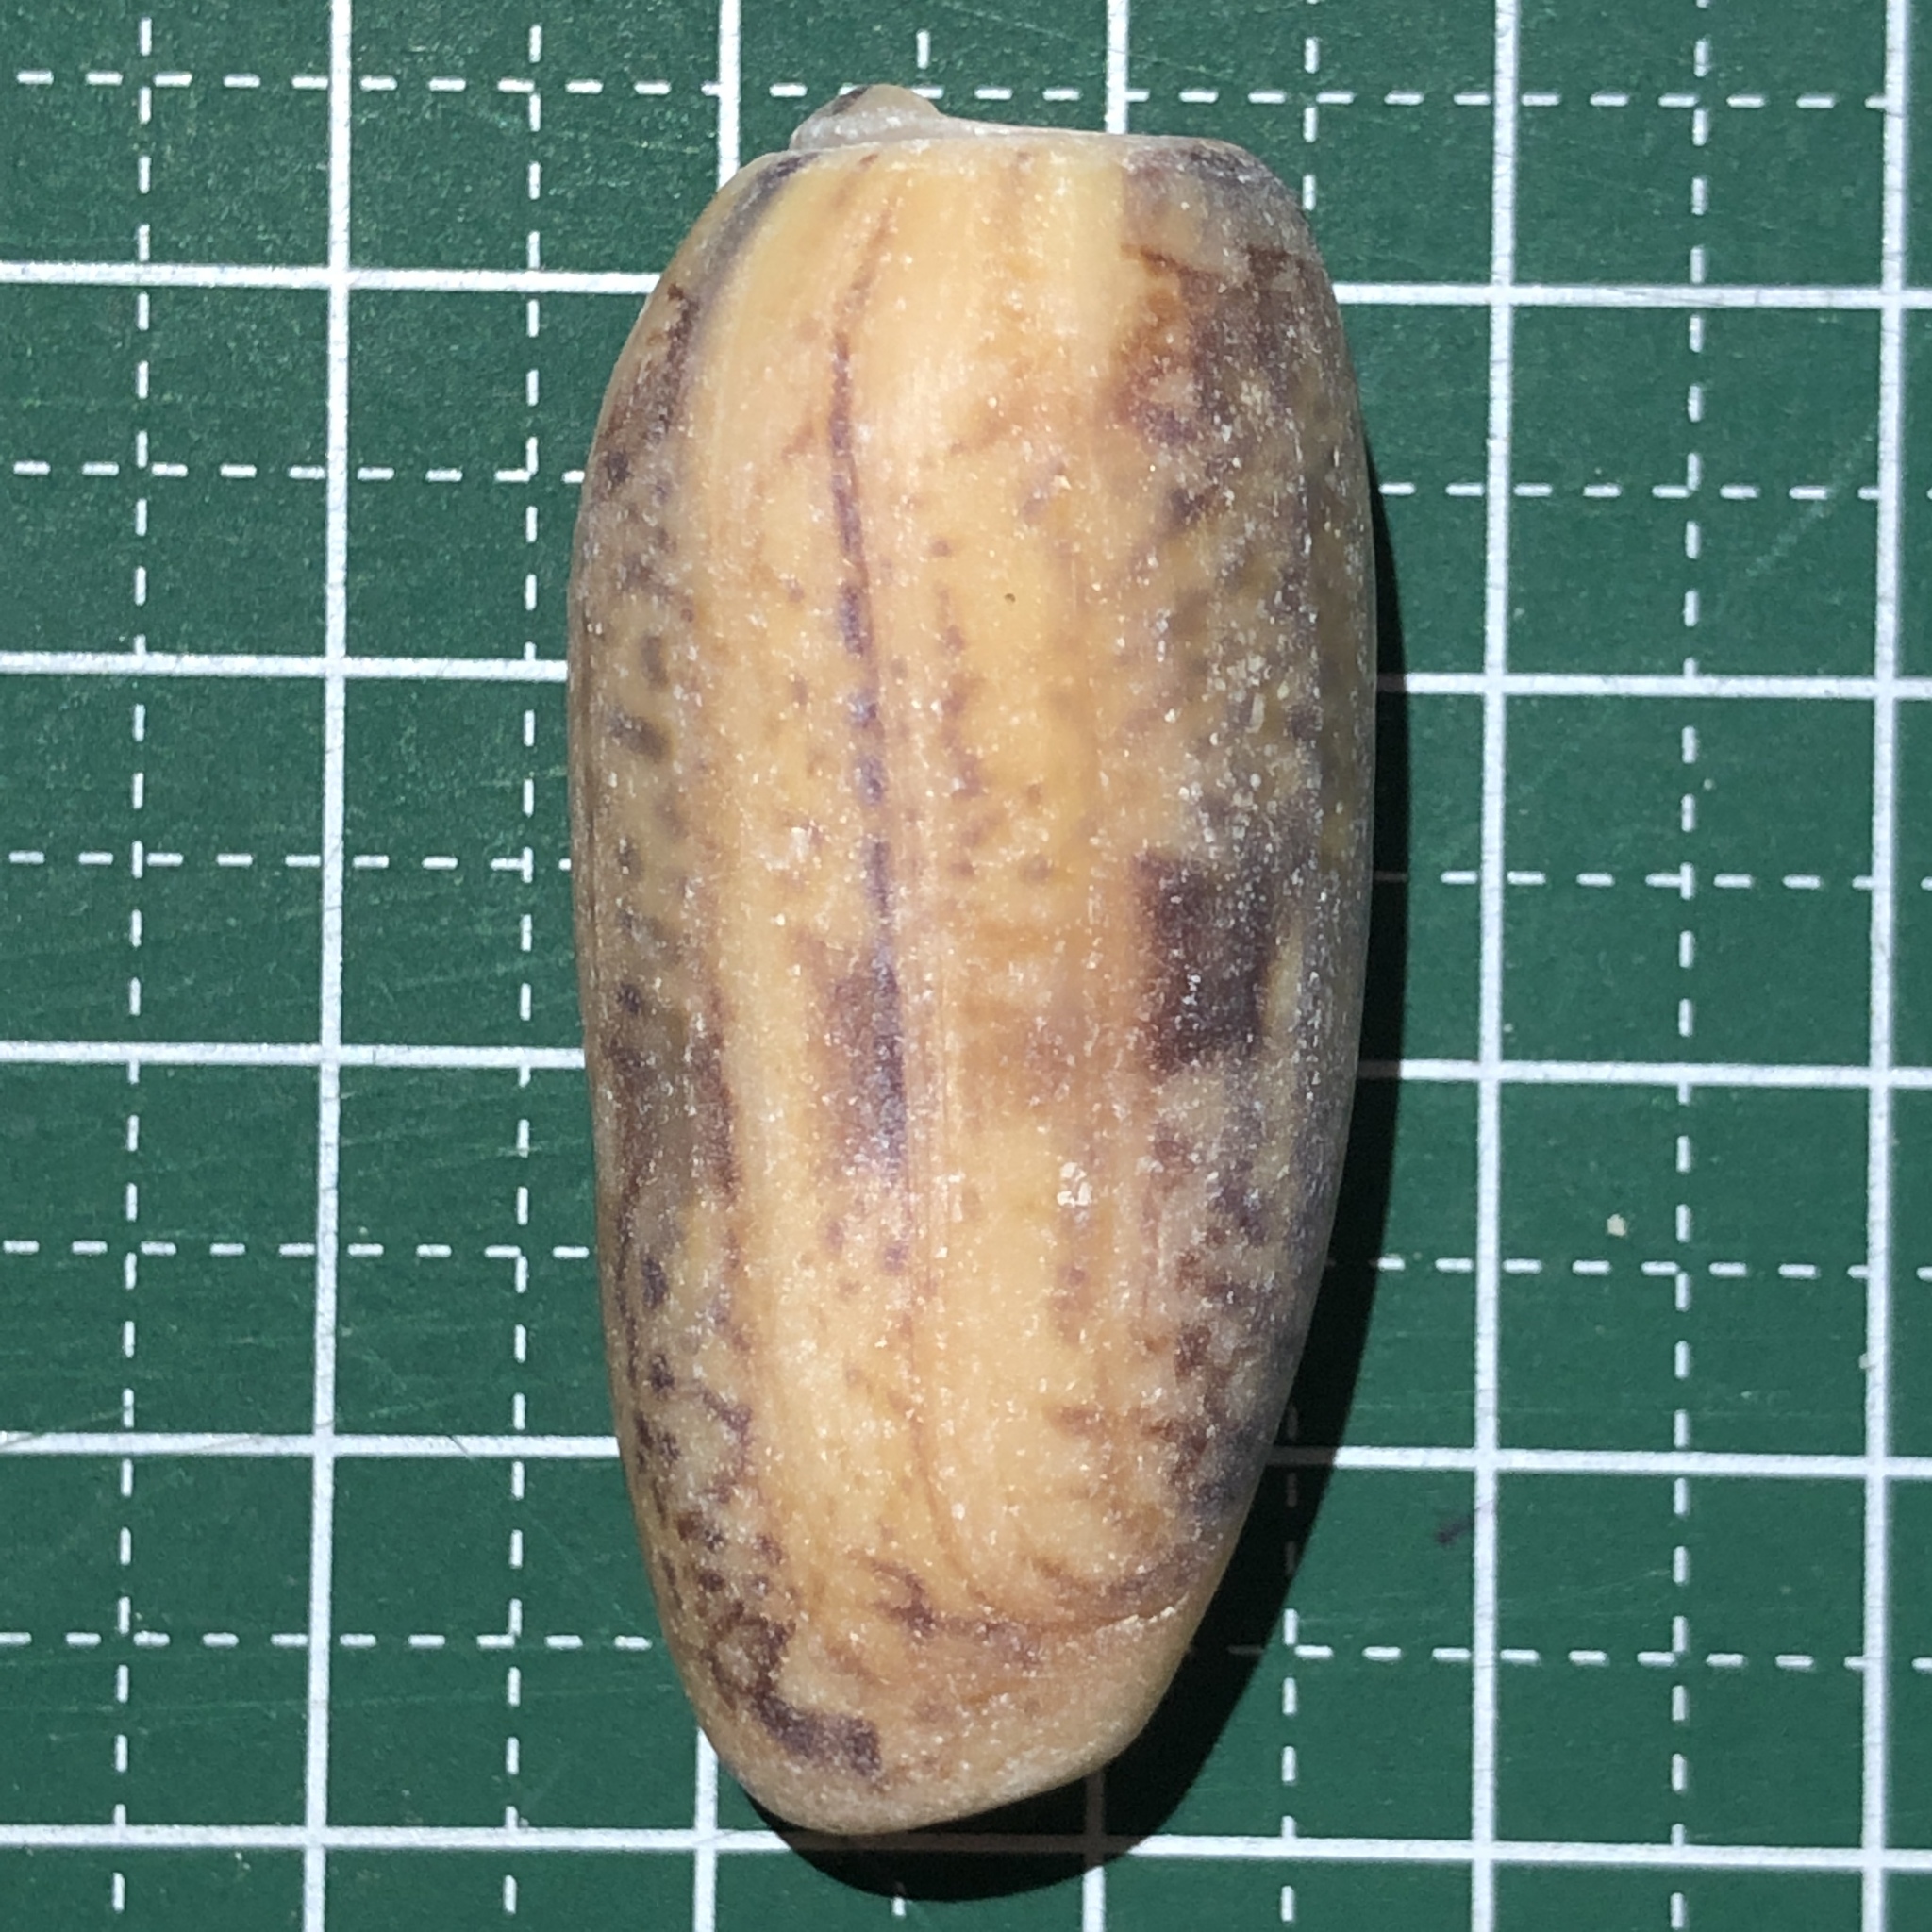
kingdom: Animalia
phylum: Mollusca
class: Gastropoda
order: Neogastropoda
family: Olividae
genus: Oliva
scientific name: Oliva miniacea
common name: Pacific common olive
